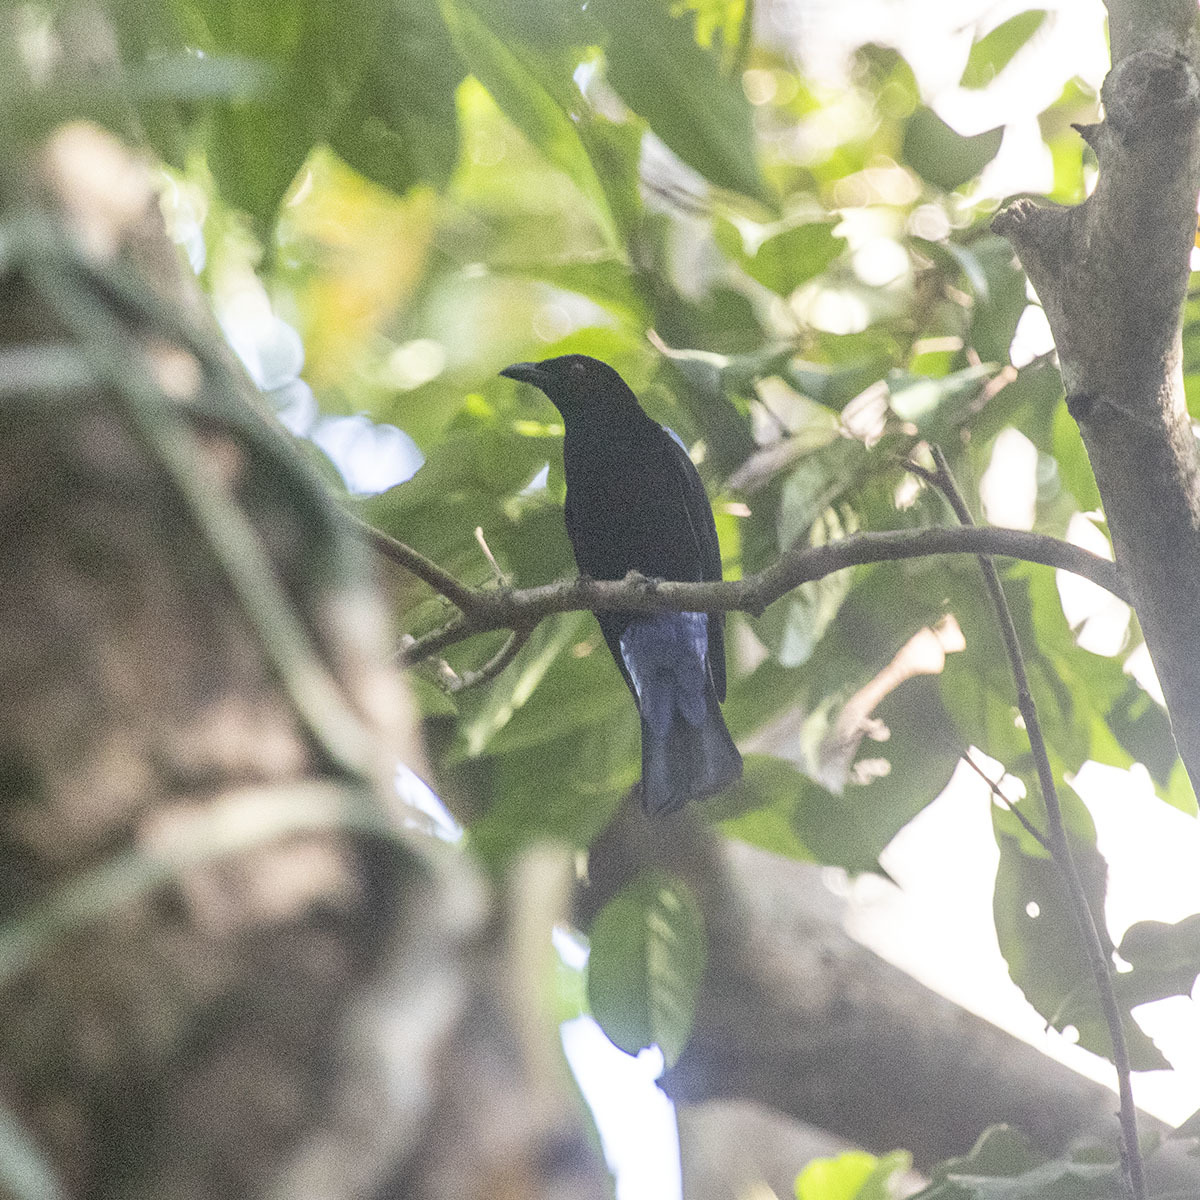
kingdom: Animalia
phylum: Chordata
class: Aves
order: Passeriformes
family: Irenidae
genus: Irena
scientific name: Irena puella
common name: Asian fairy-bluebird
